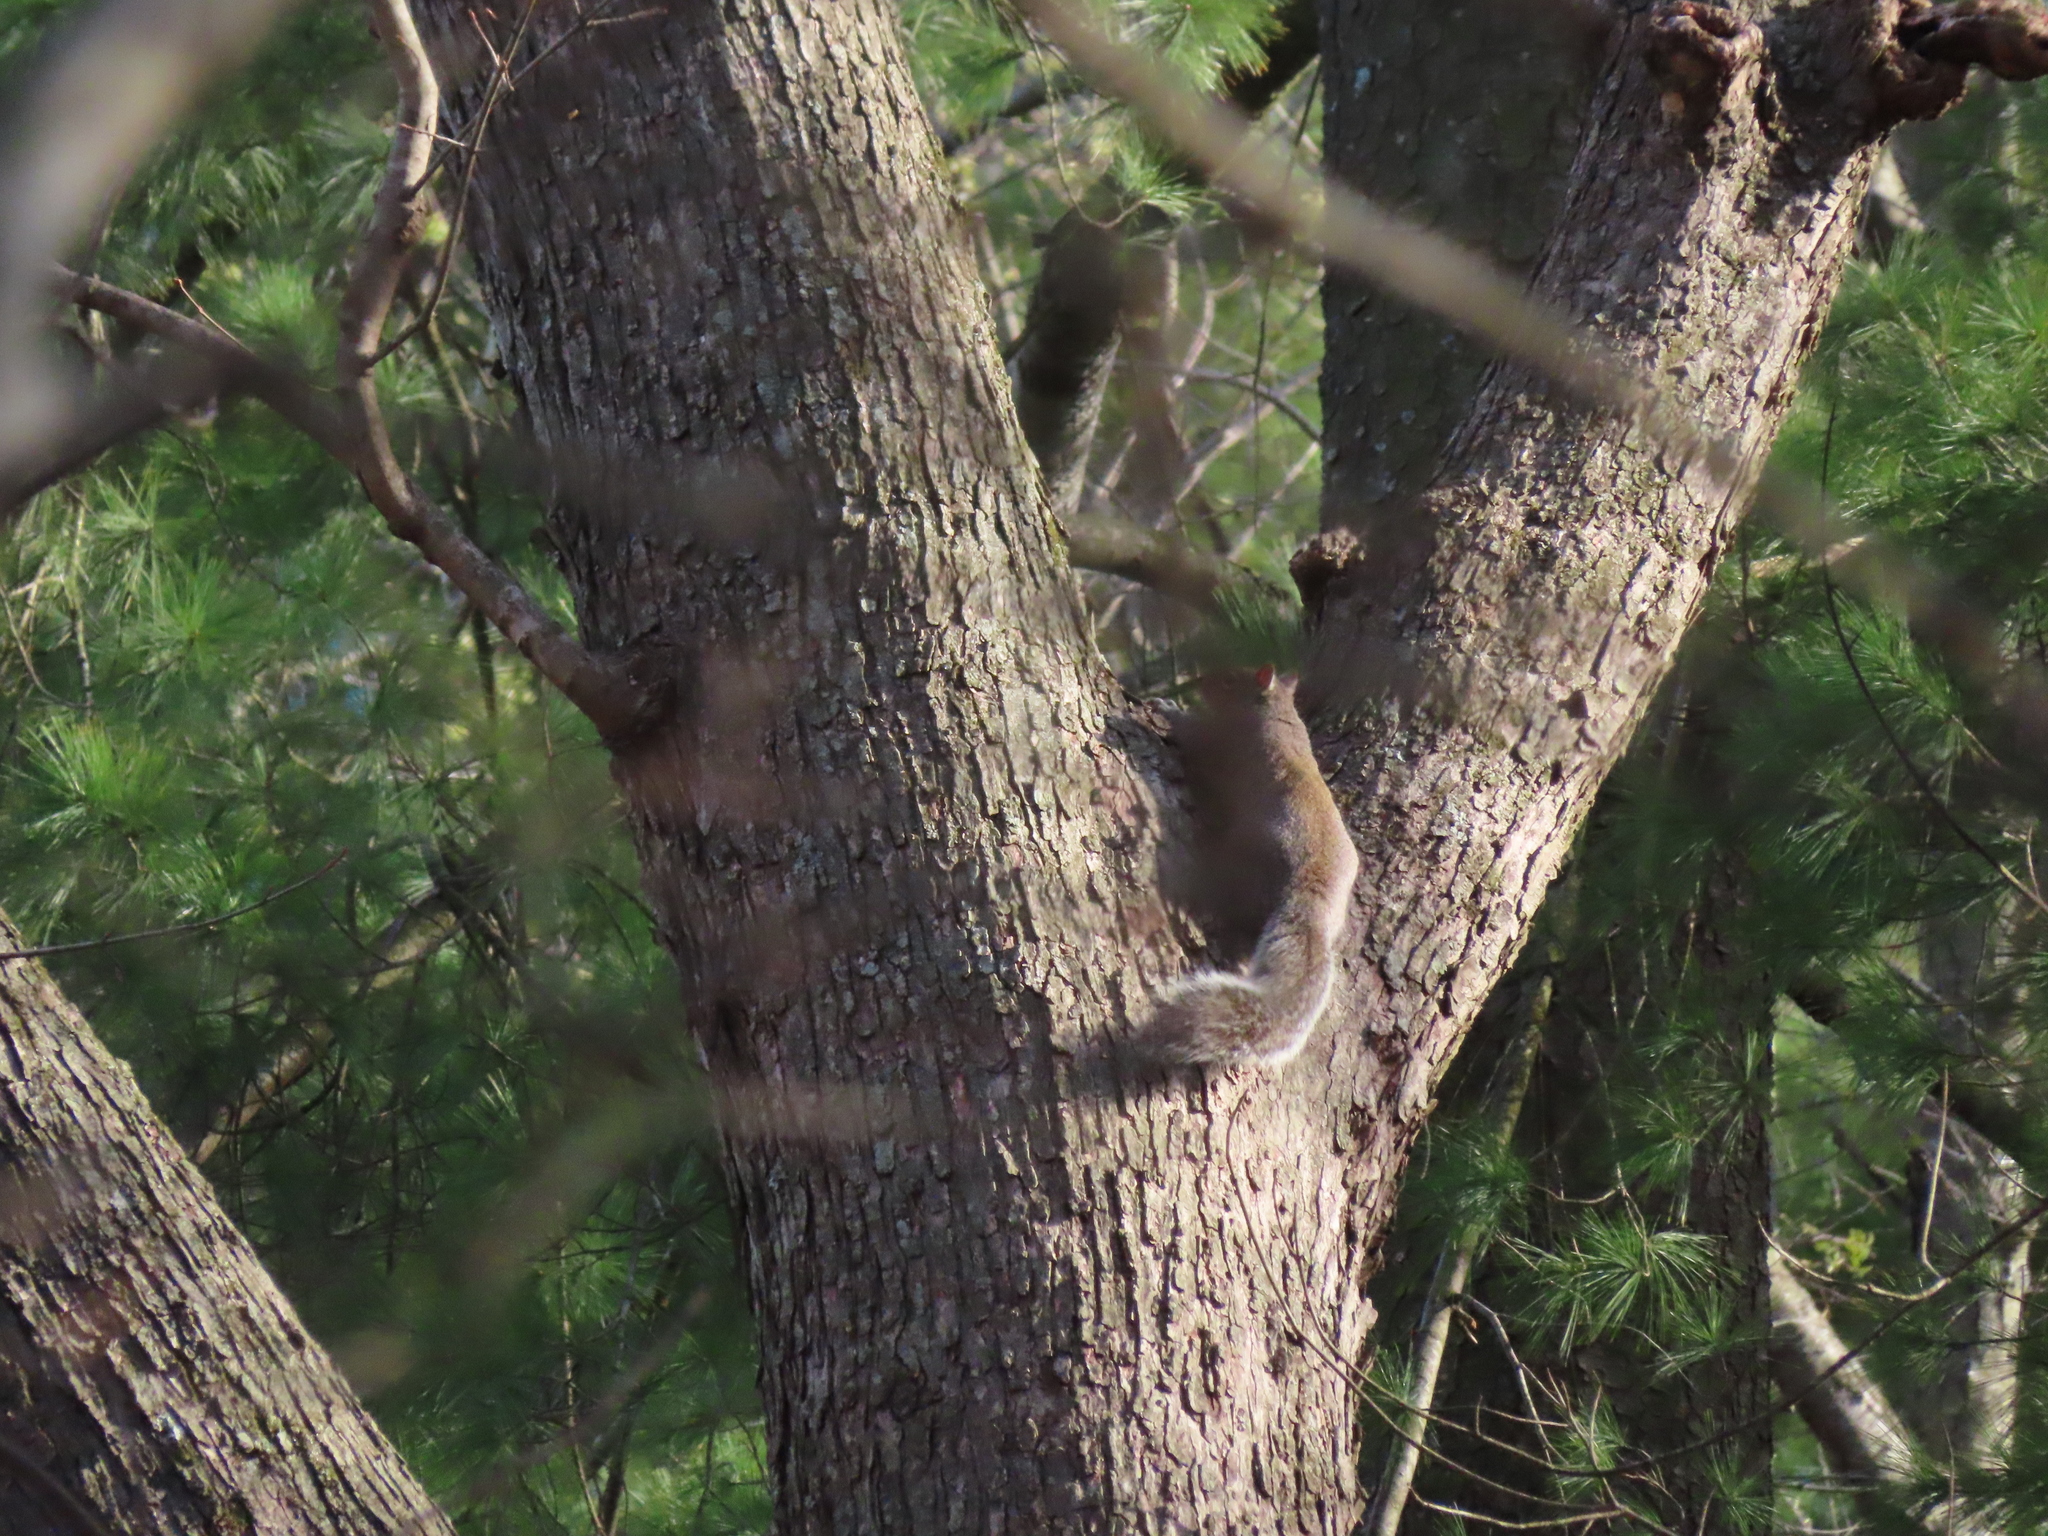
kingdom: Animalia
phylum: Chordata
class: Mammalia
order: Rodentia
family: Sciuridae
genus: Sciurus
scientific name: Sciurus carolinensis
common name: Eastern gray squirrel
